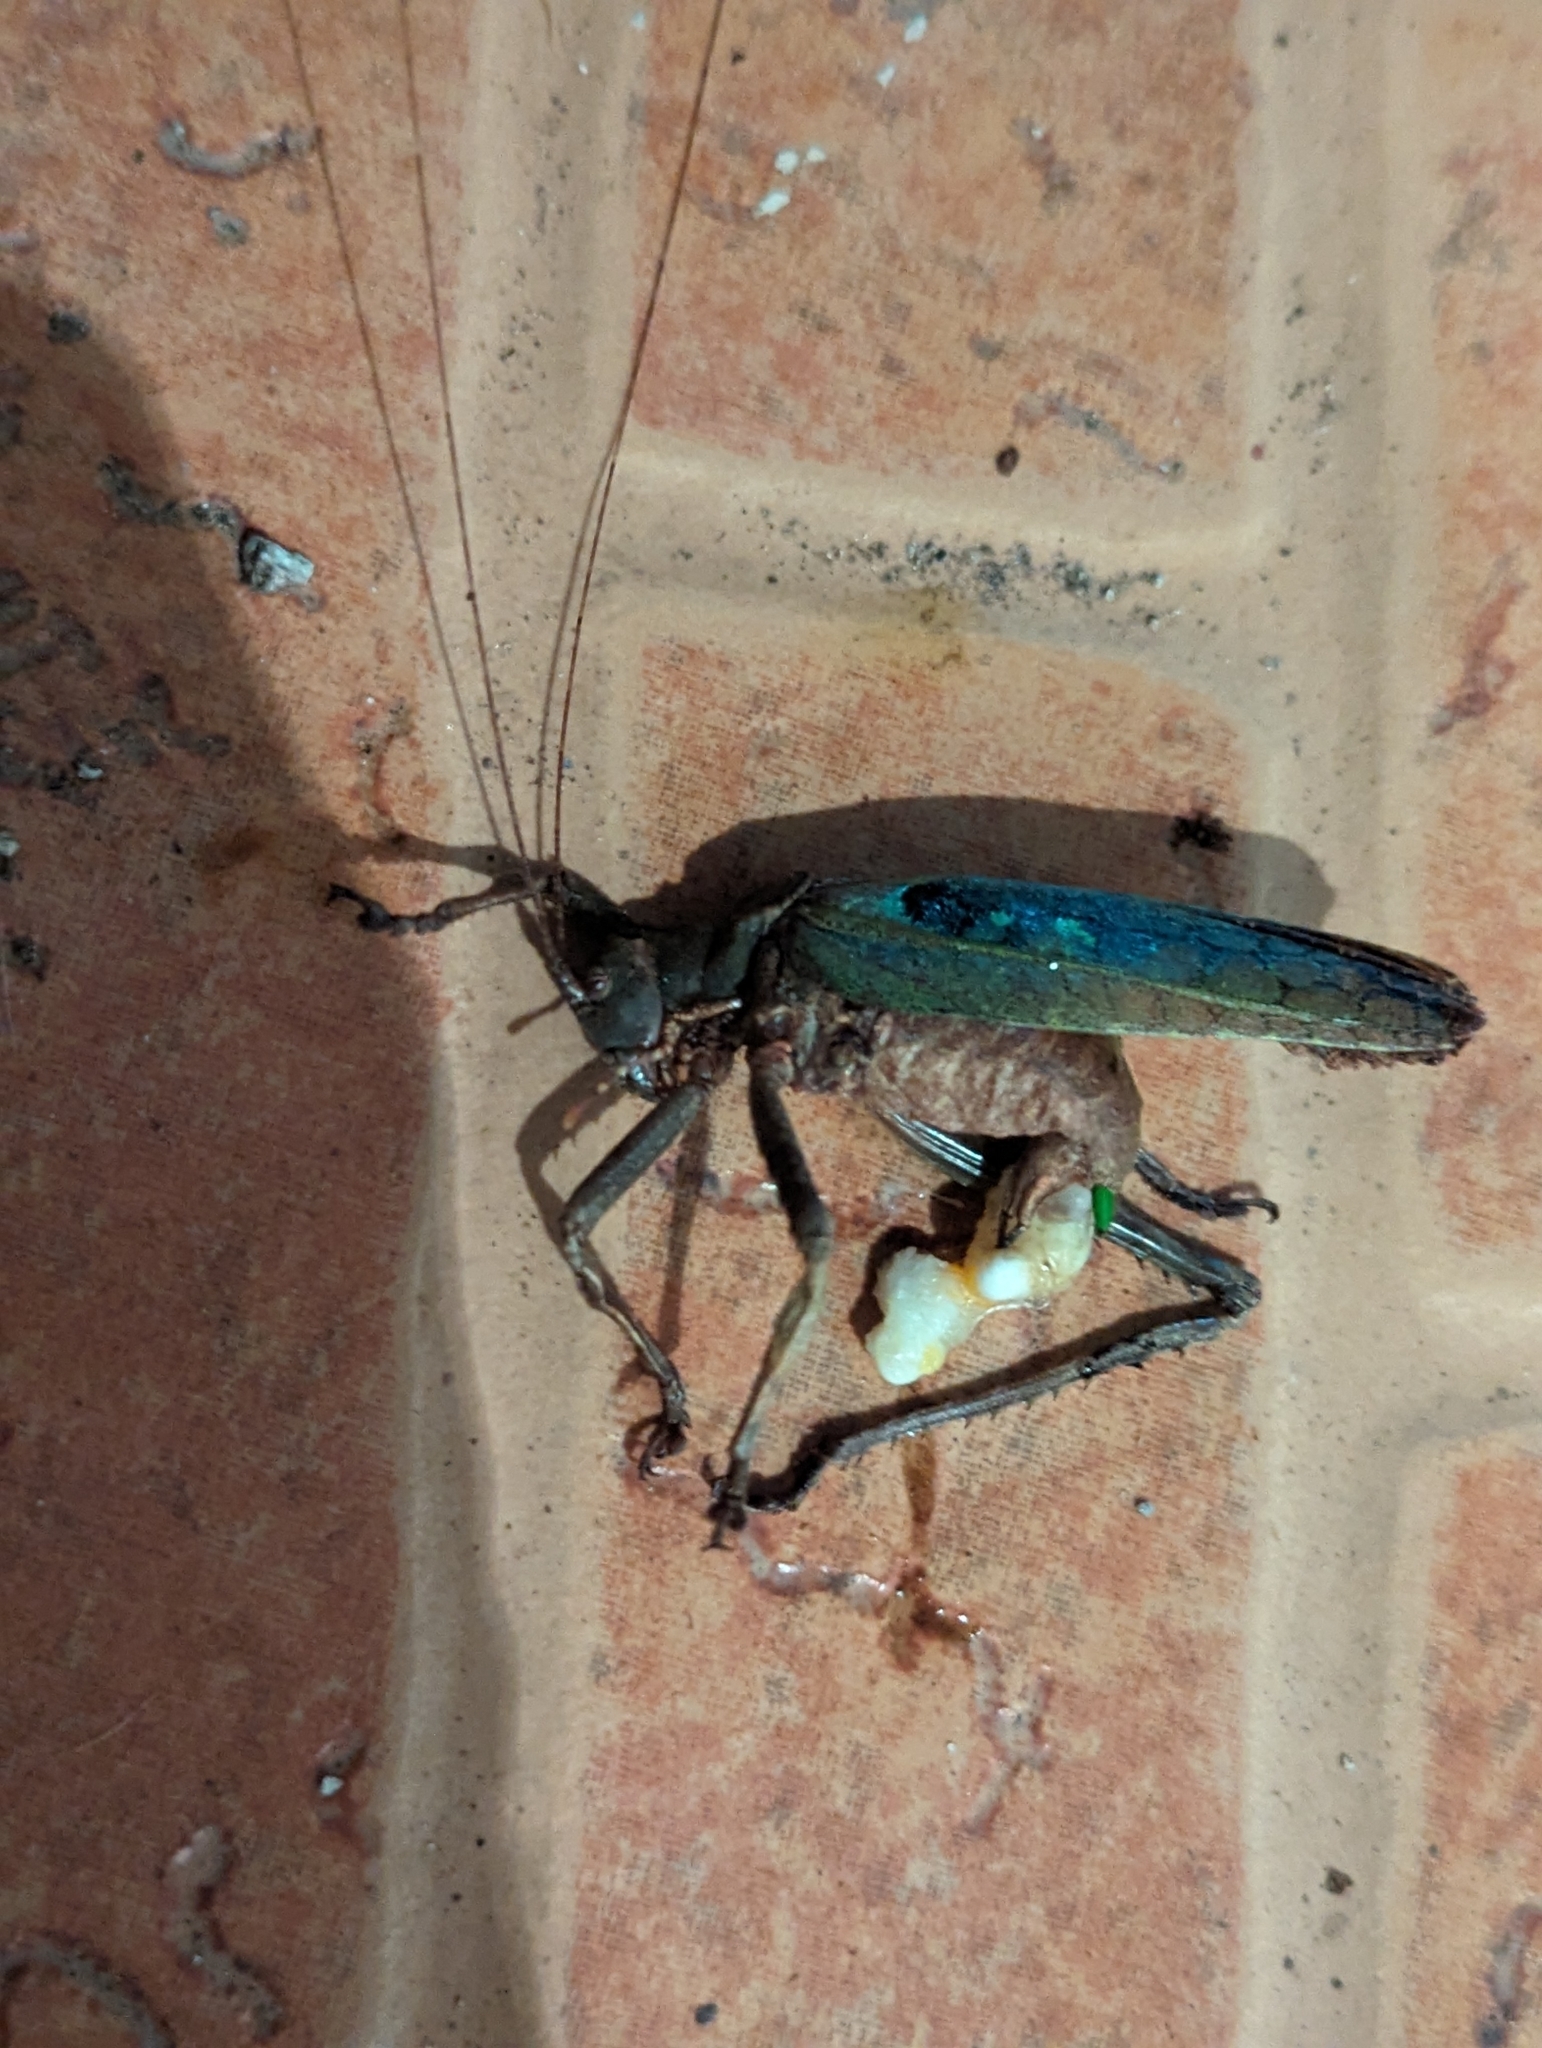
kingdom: Animalia
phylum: Arthropoda
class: Insecta
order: Orthoptera
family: Tettigoniidae
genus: Balboana
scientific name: Balboana tibialis
